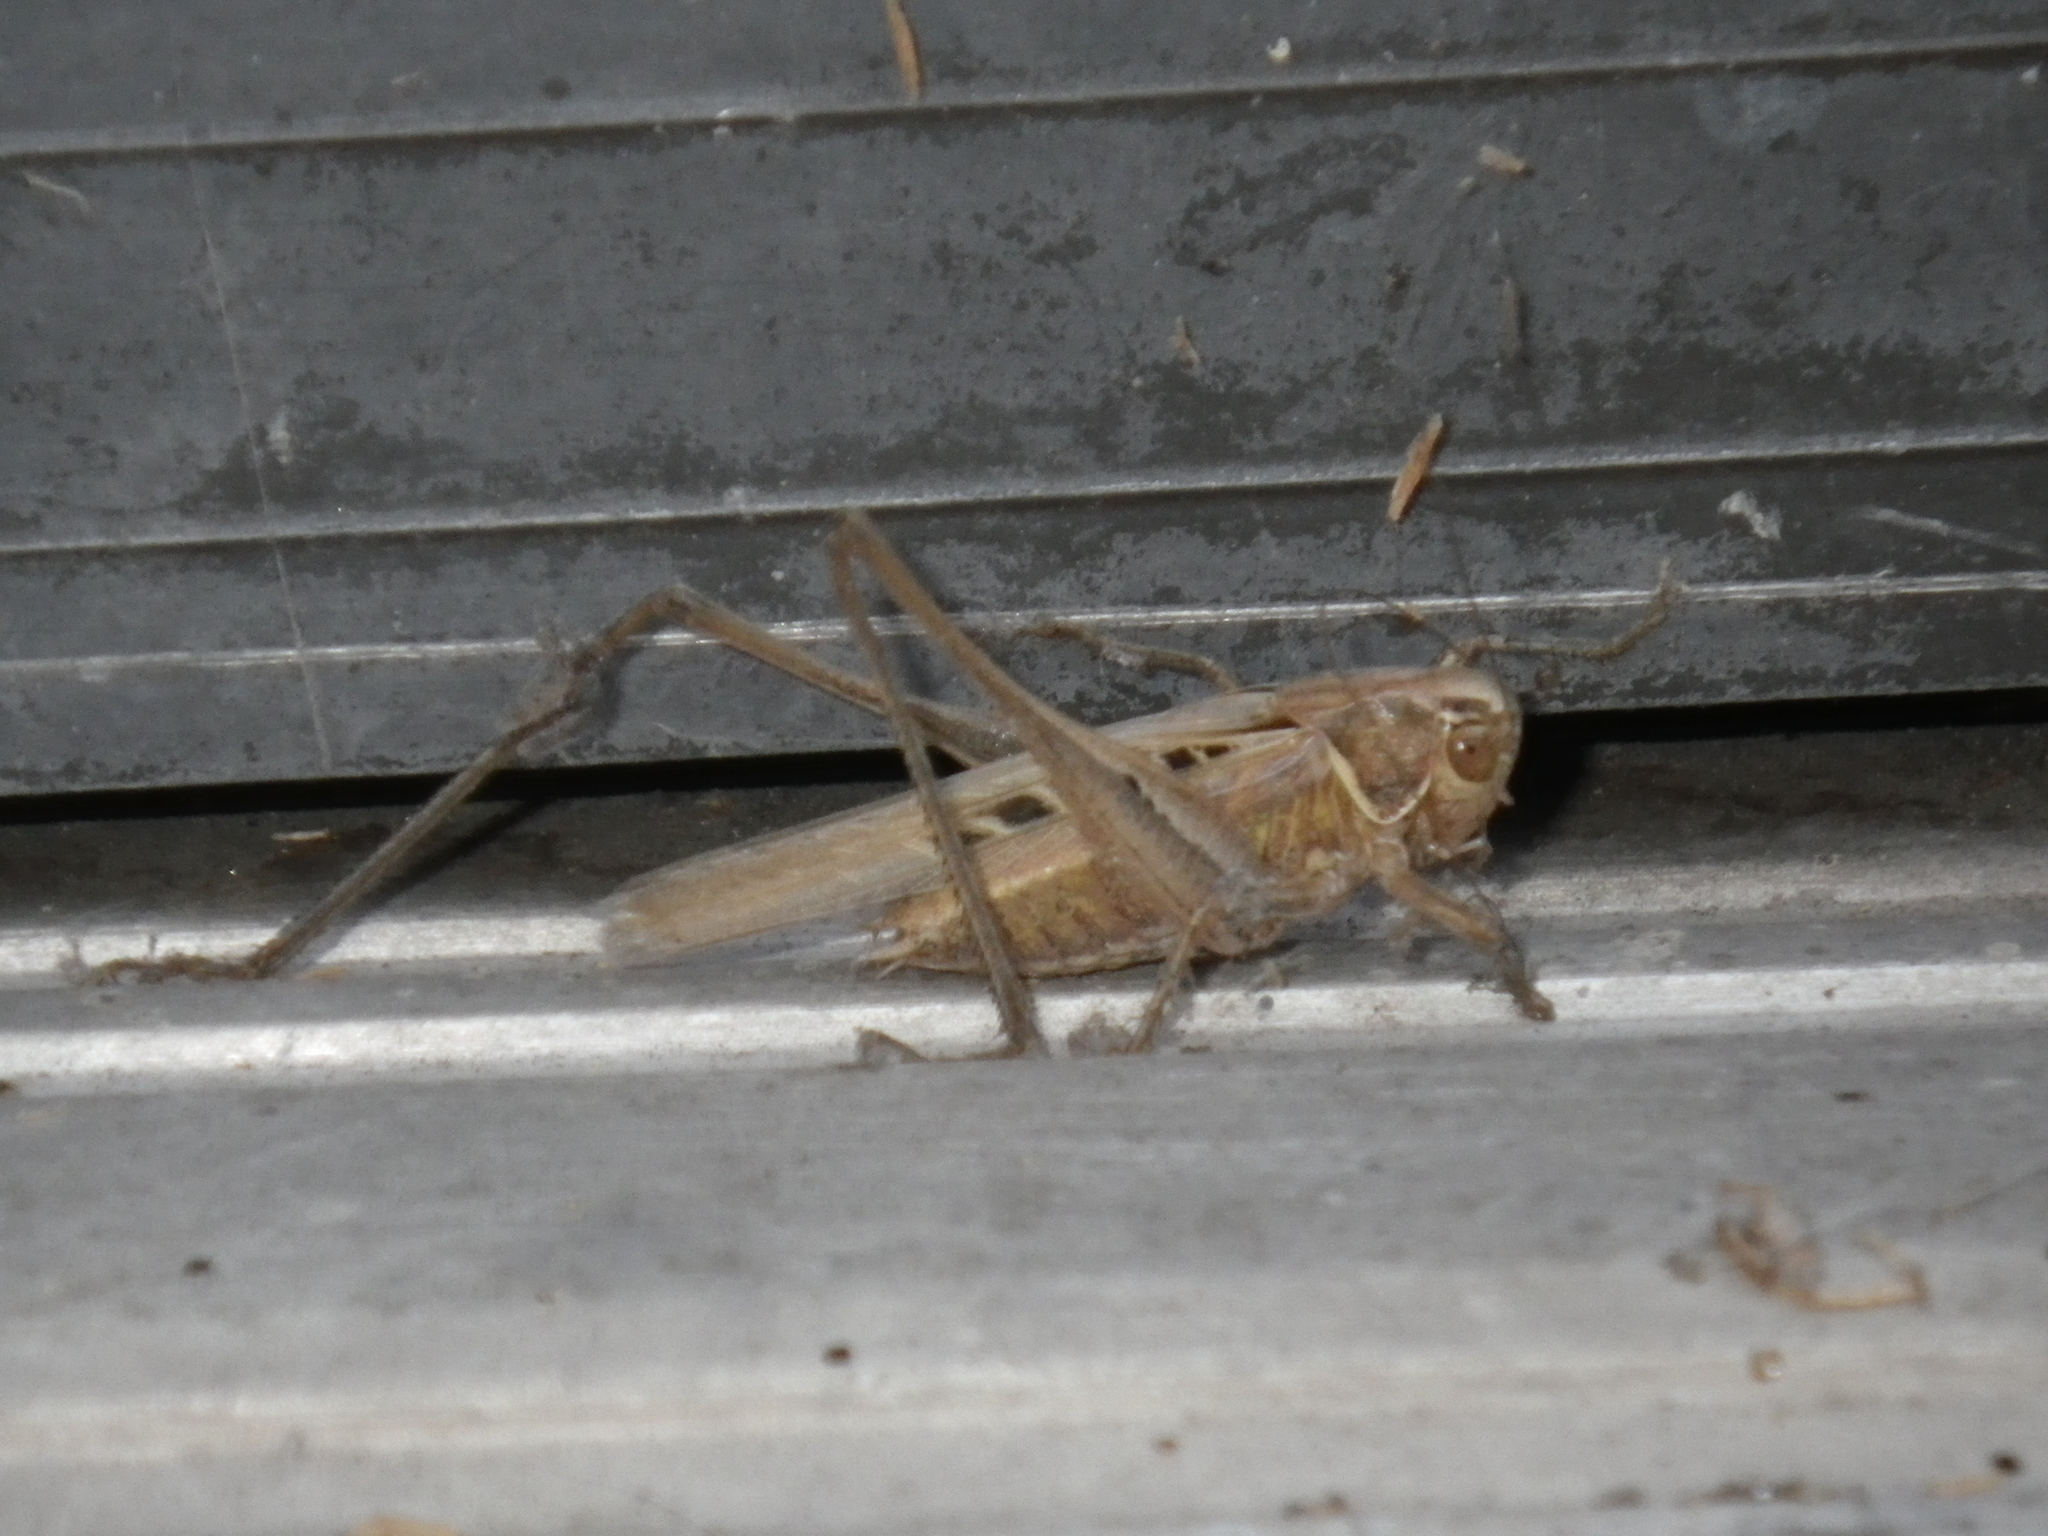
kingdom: Animalia
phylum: Arthropoda
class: Insecta
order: Orthoptera
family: Tettigoniidae
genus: Tessellana
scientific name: Tessellana tessellata
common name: Grasshopper
